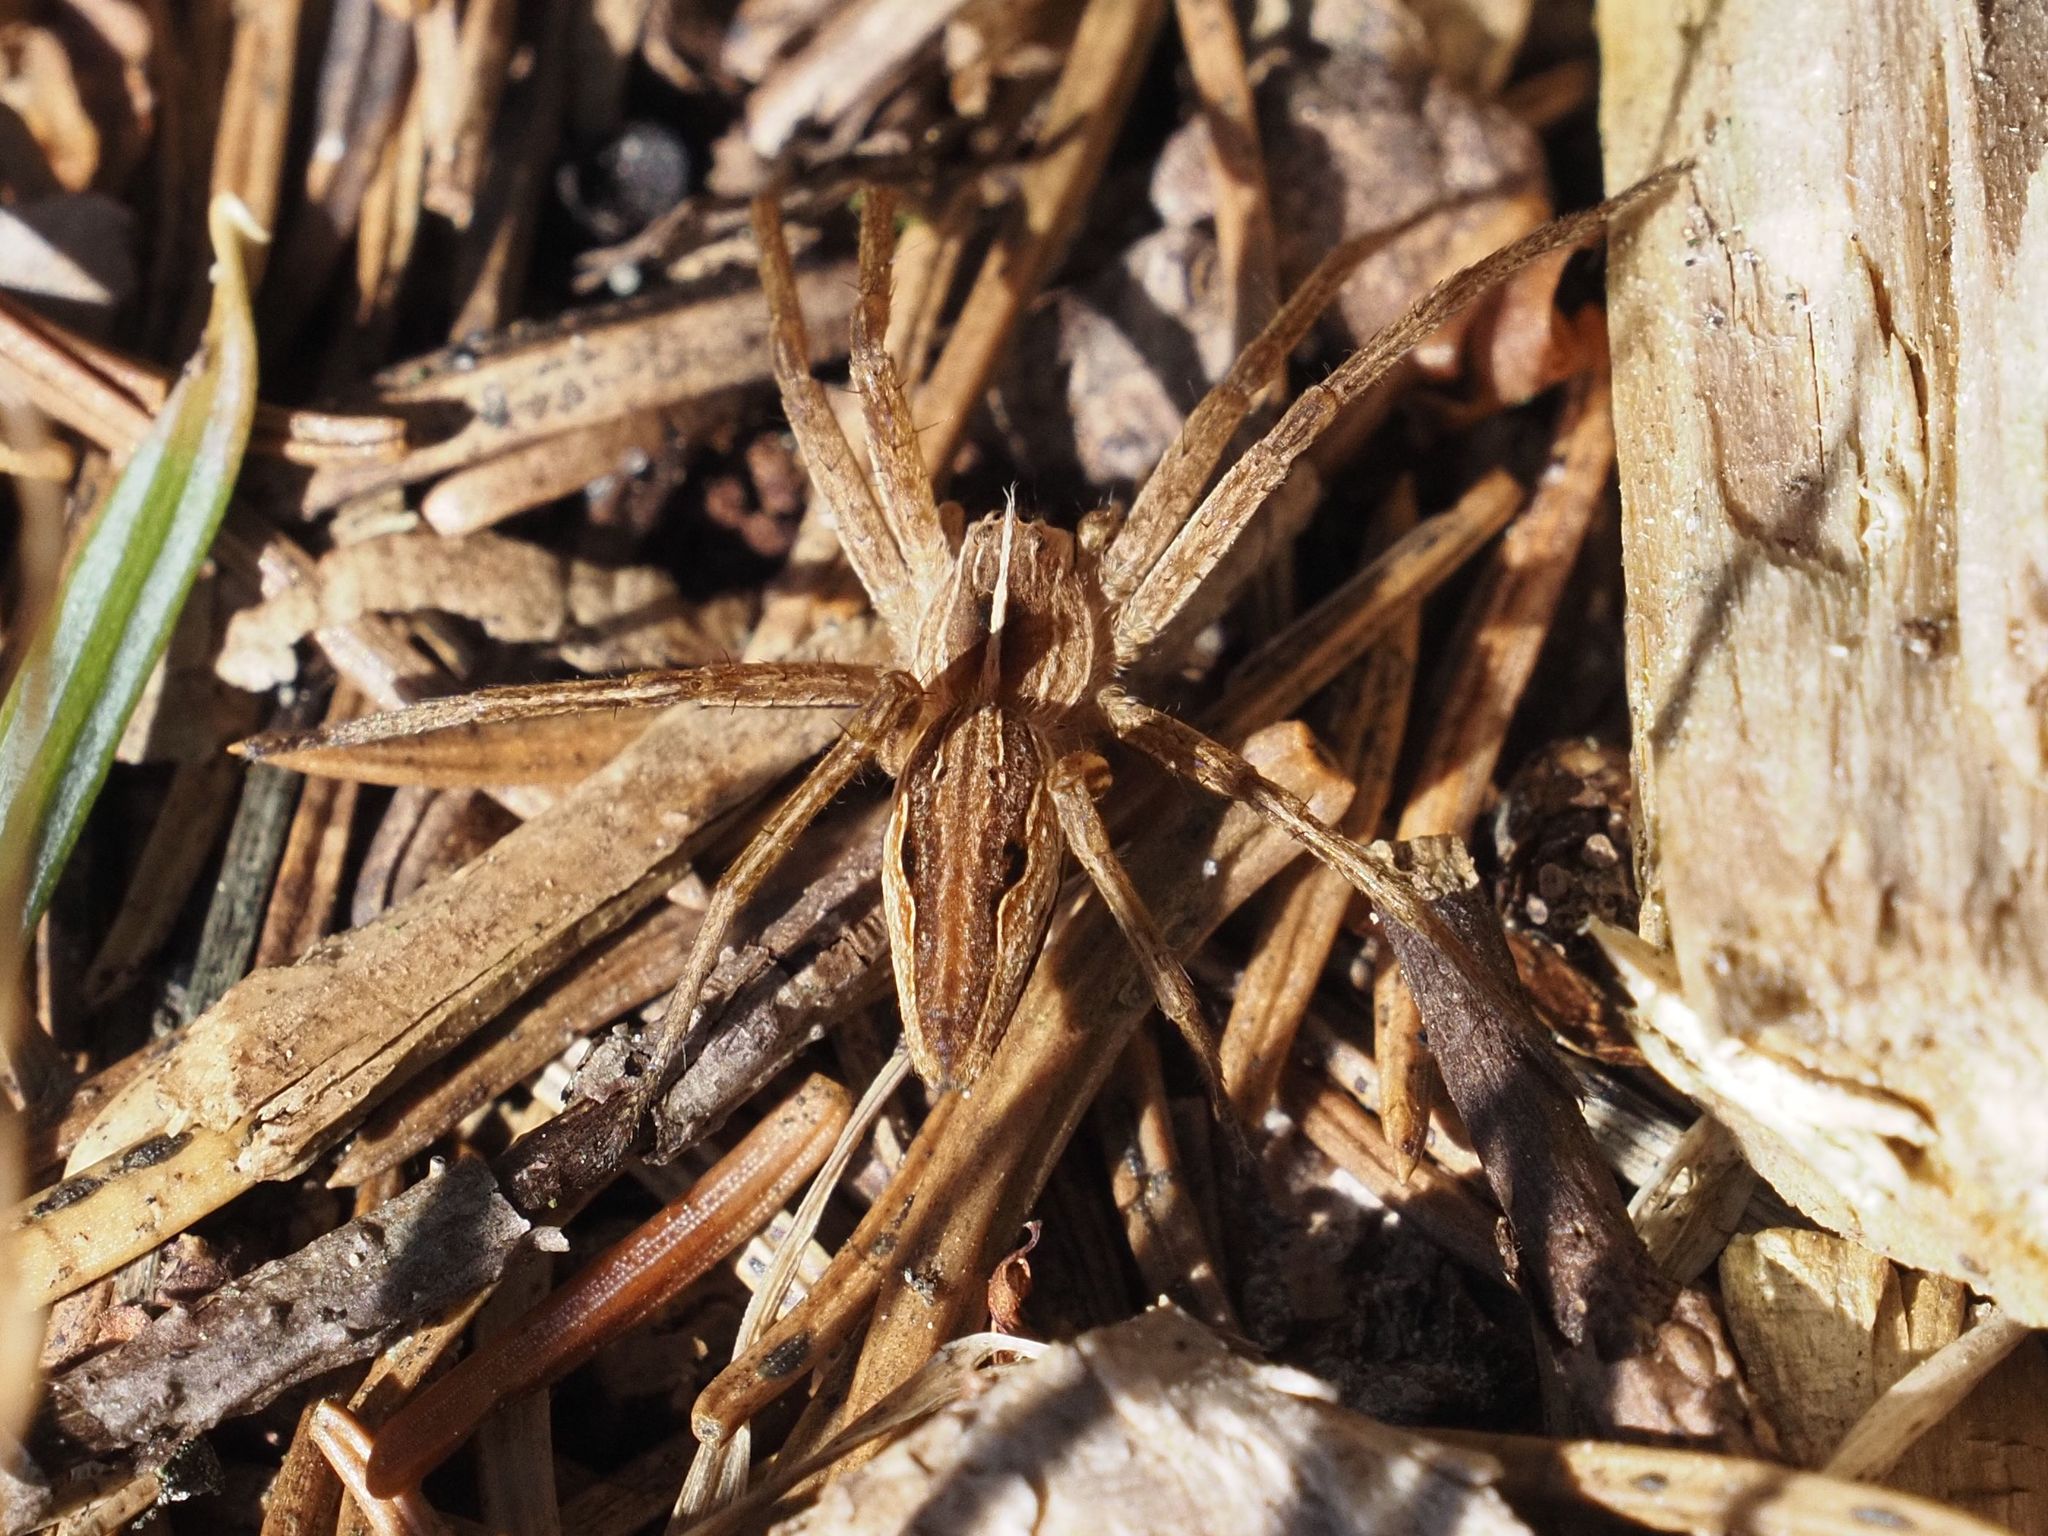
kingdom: Animalia
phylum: Arthropoda
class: Arachnida
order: Araneae
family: Pisauridae
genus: Pisaura
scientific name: Pisaura mirabilis
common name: Tent spider
